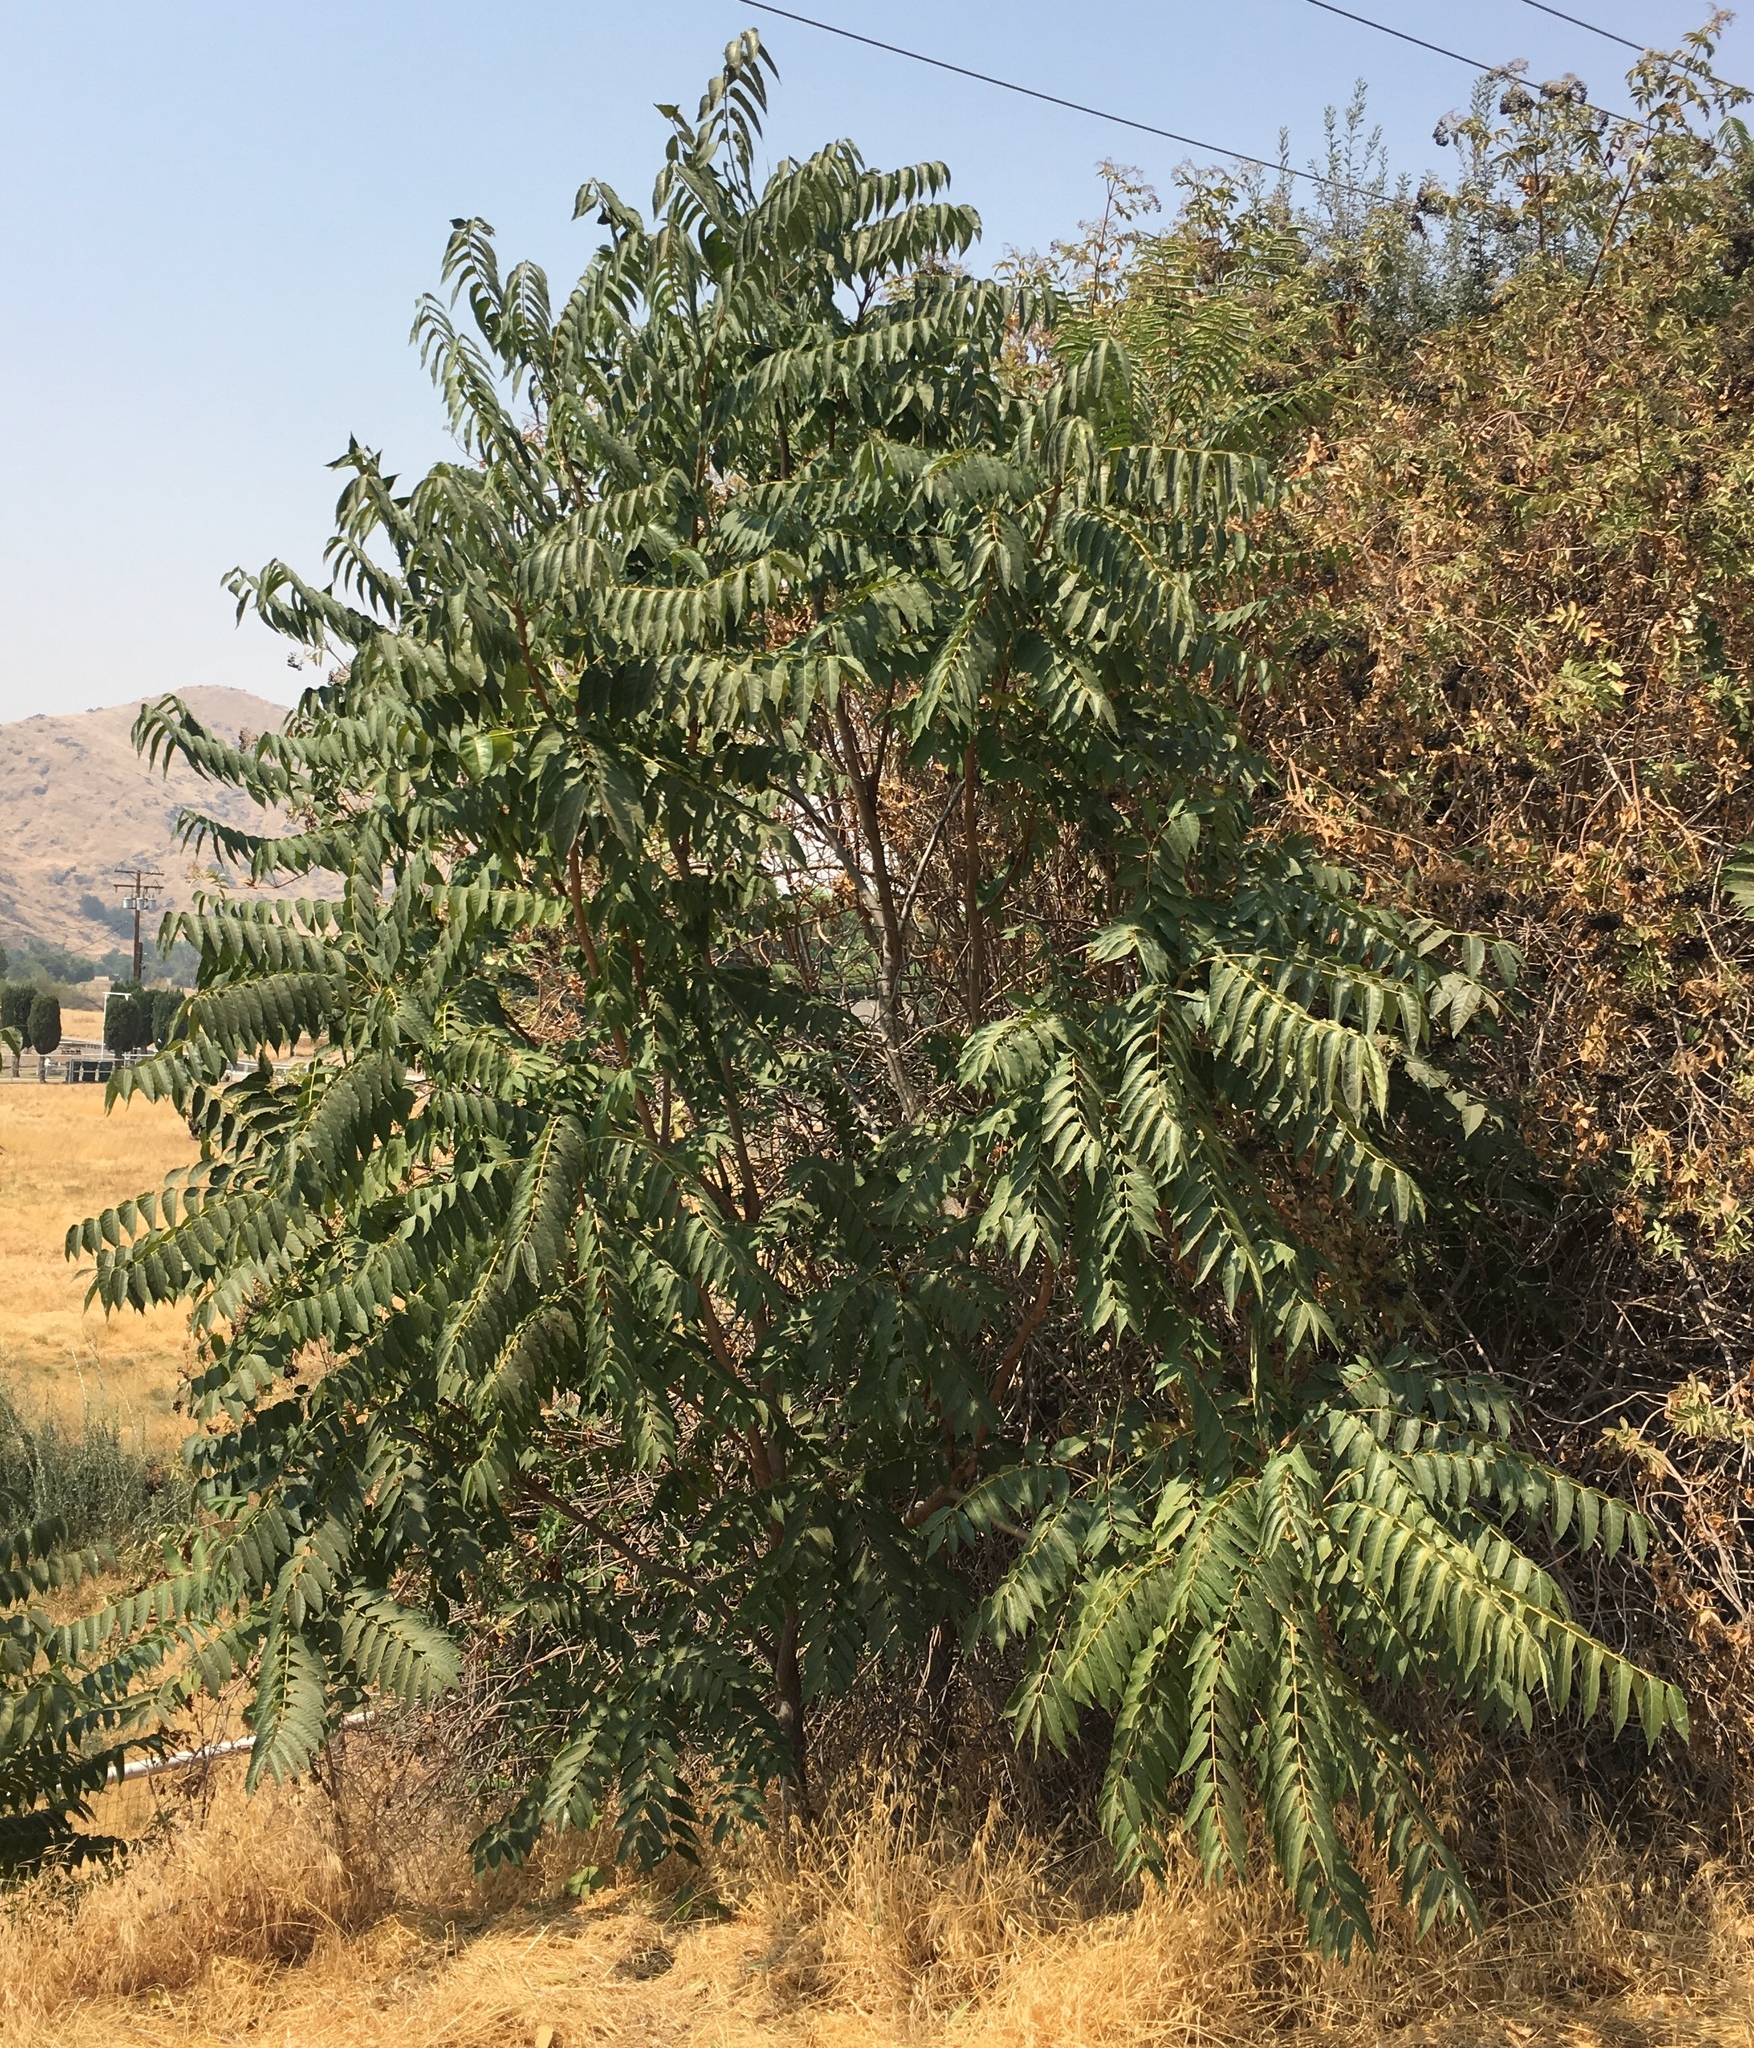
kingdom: Plantae
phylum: Tracheophyta
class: Magnoliopsida
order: Sapindales
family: Simaroubaceae
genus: Ailanthus
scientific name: Ailanthus altissima
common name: Tree-of-heaven
